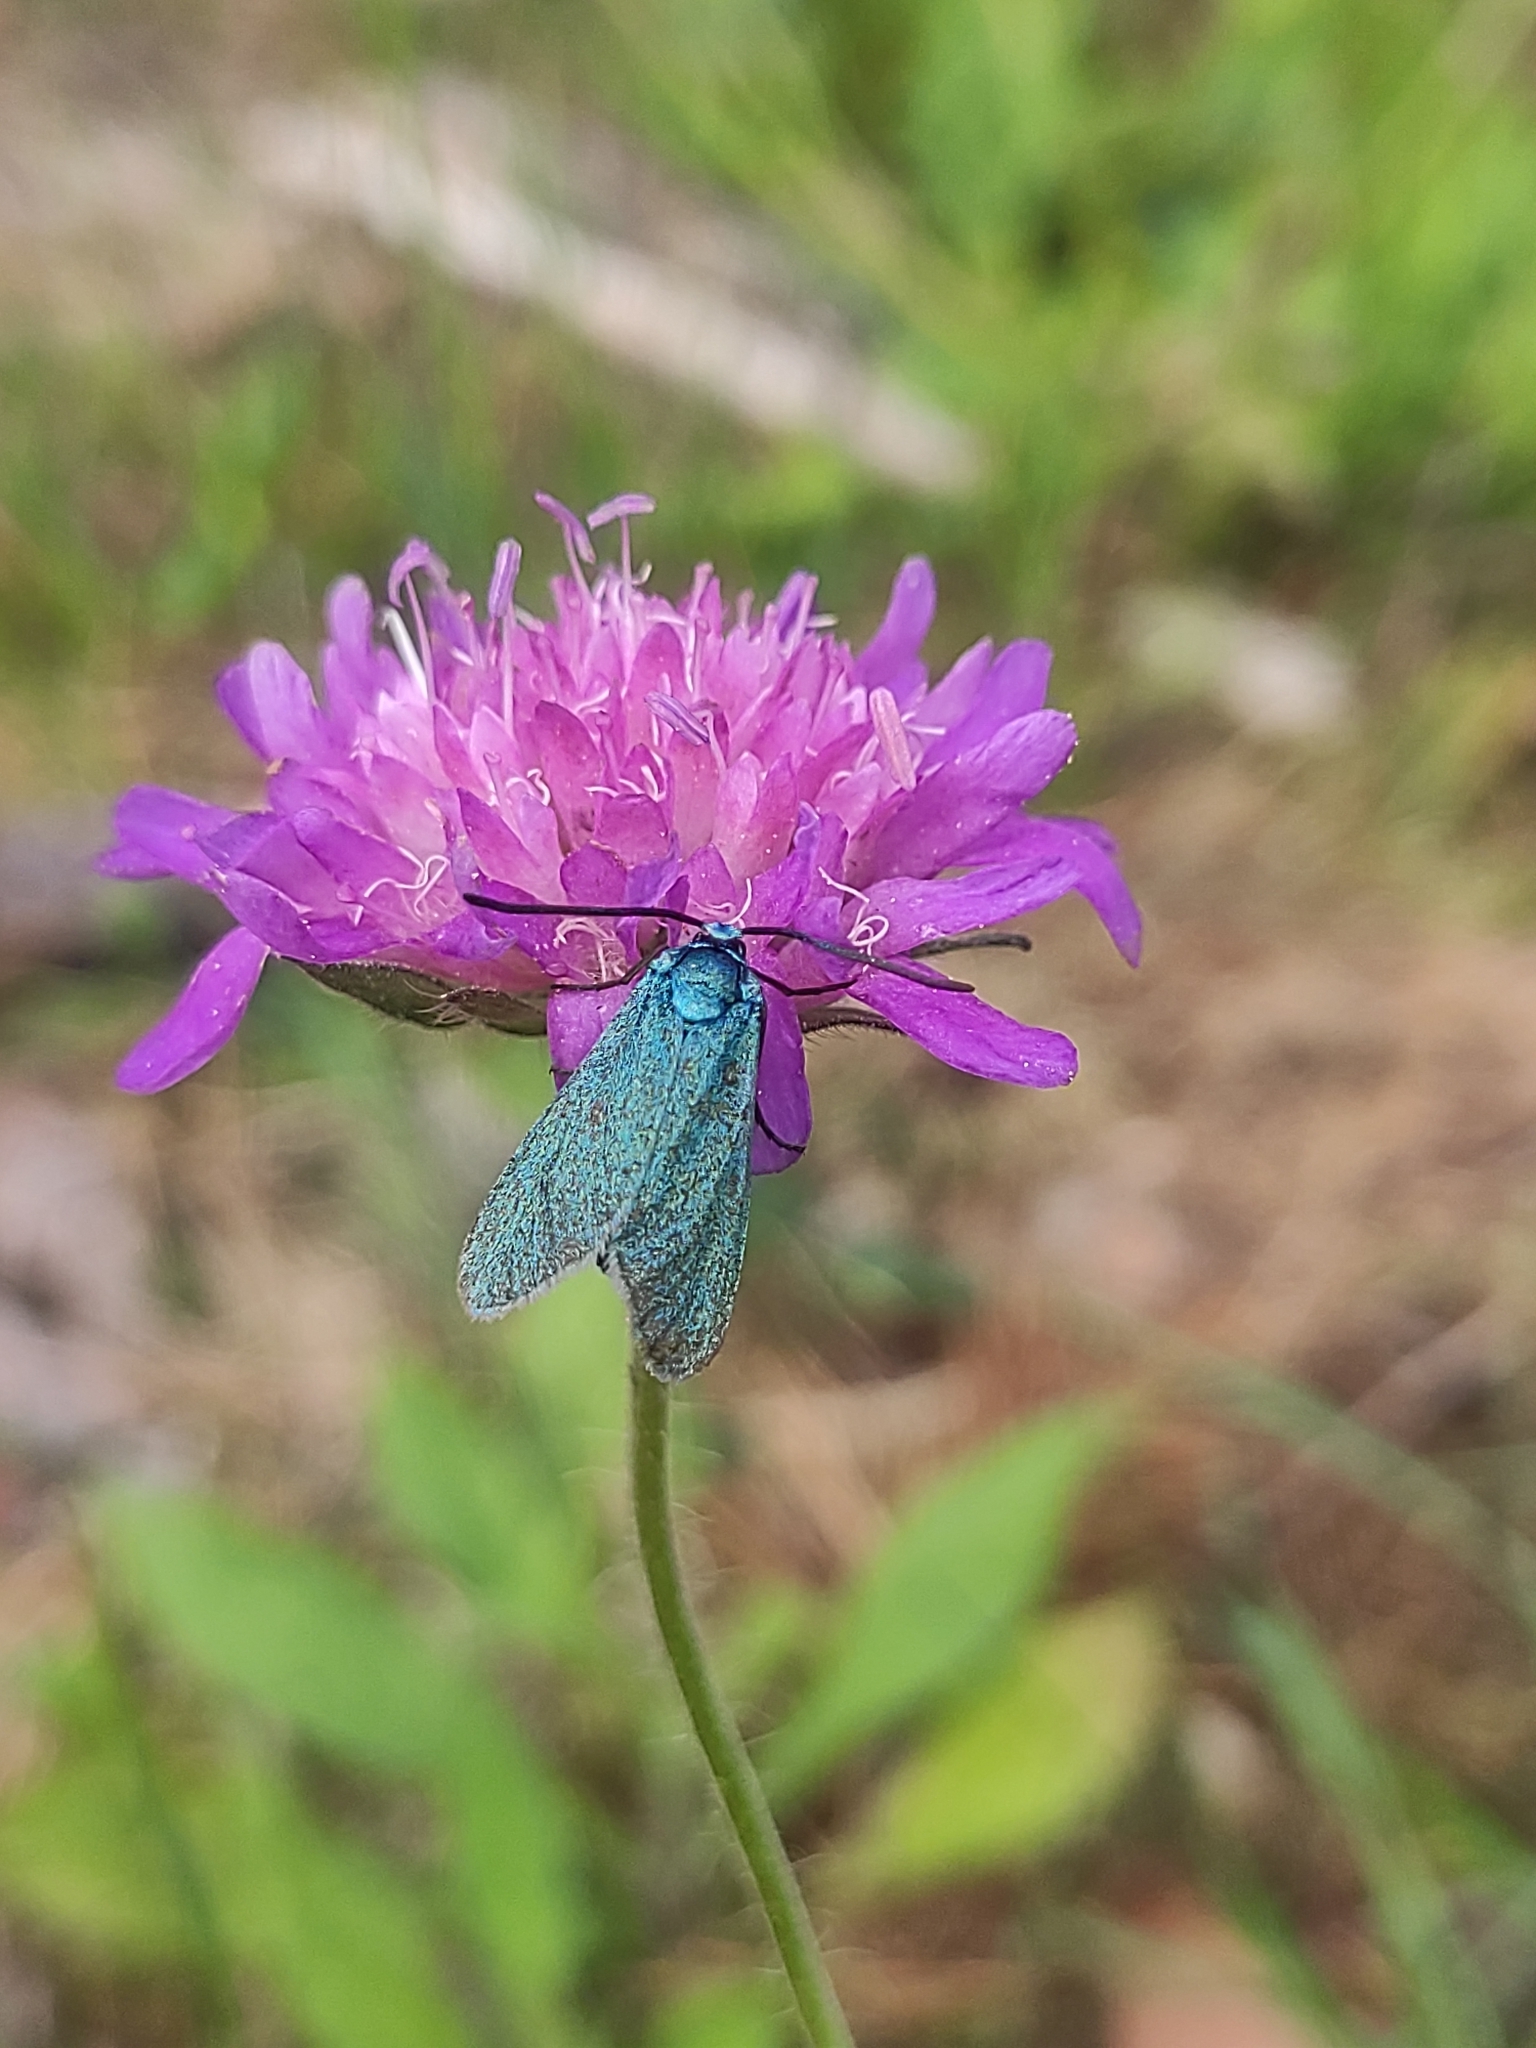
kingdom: Animalia
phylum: Arthropoda
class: Insecta
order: Lepidoptera
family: Zygaenidae
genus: Adscita
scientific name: Adscita statices
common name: Forester
